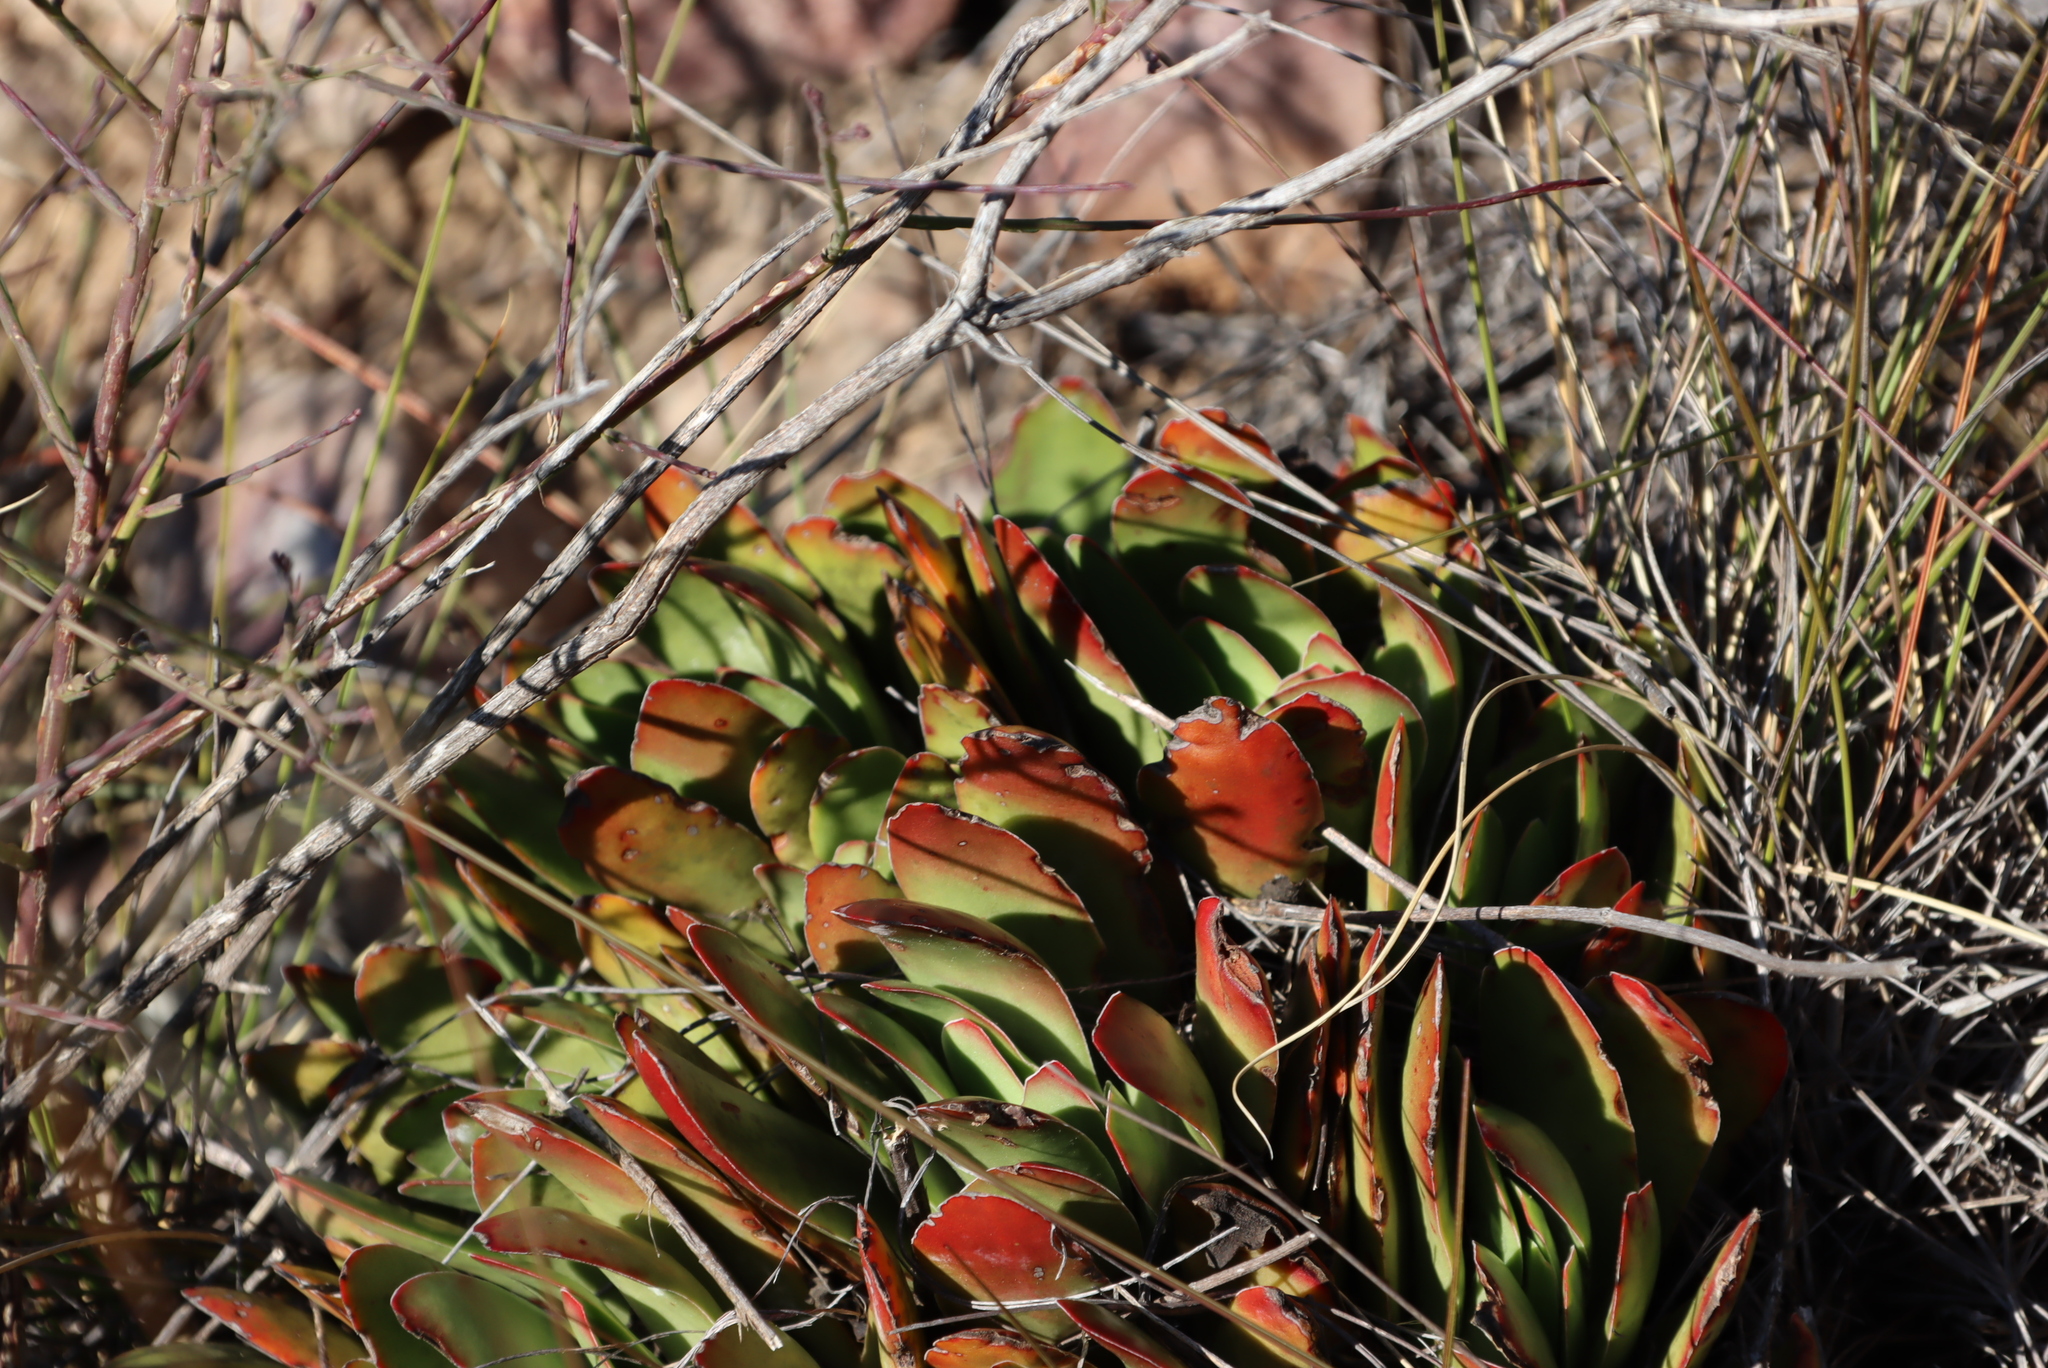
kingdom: Plantae
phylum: Tracheophyta
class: Magnoliopsida
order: Saxifragales
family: Crassulaceae
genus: Crassula
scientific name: Crassula nudicaulis
